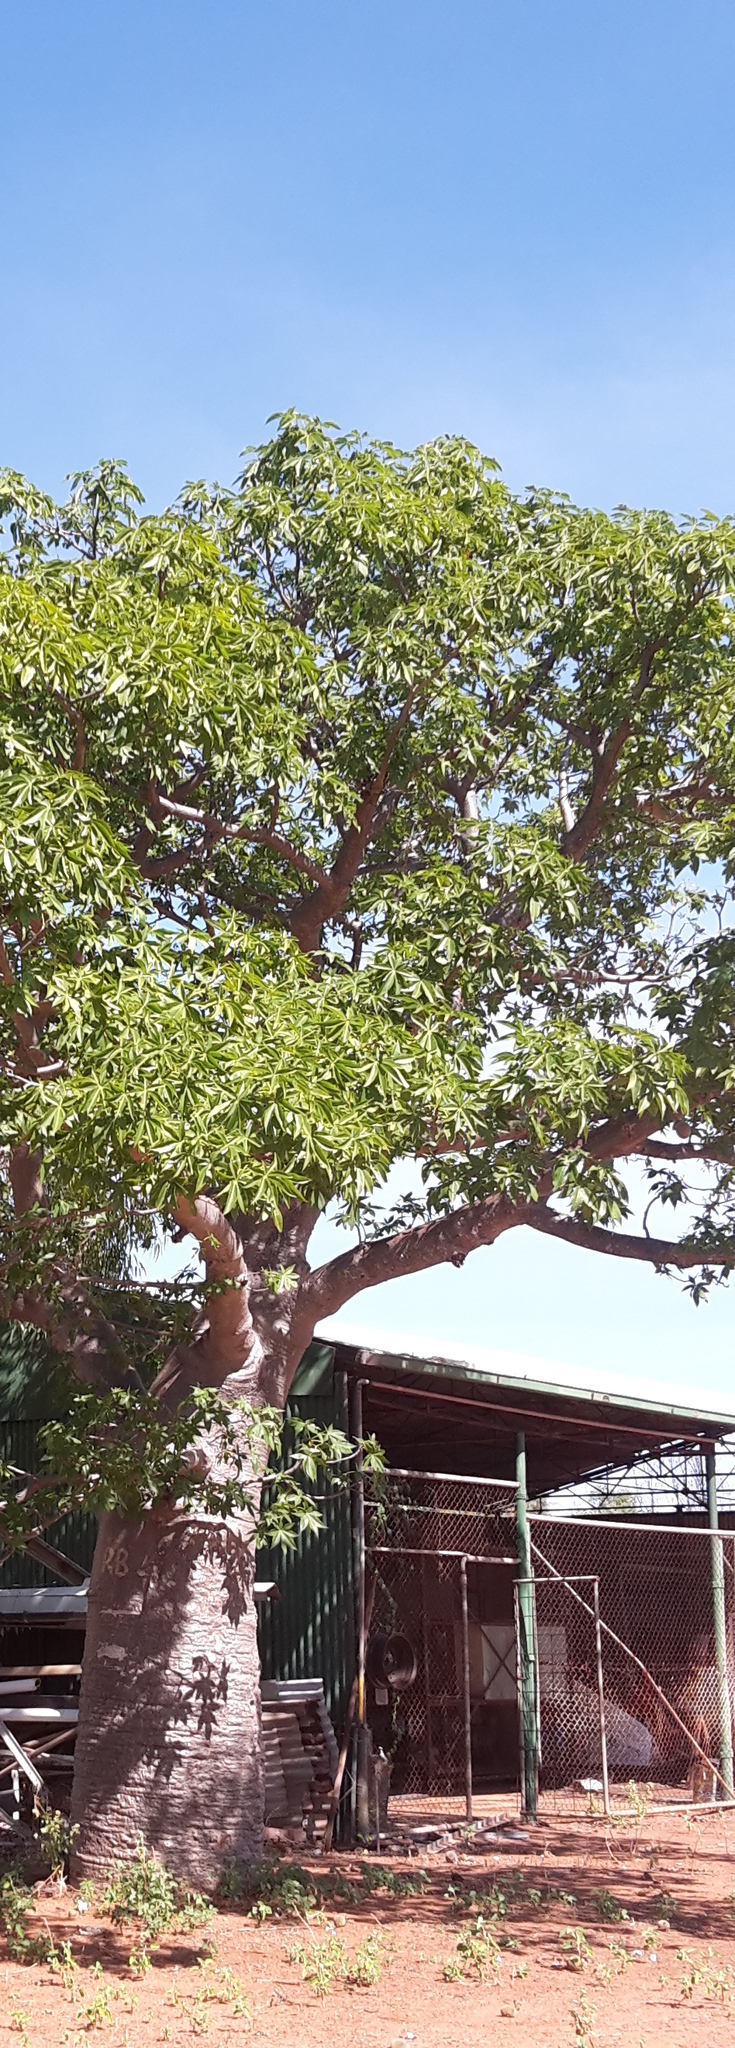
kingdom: Plantae
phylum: Tracheophyta
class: Magnoliopsida
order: Malvales
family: Malvaceae
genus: Adansonia
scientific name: Adansonia gregorii
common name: Australian baobab
